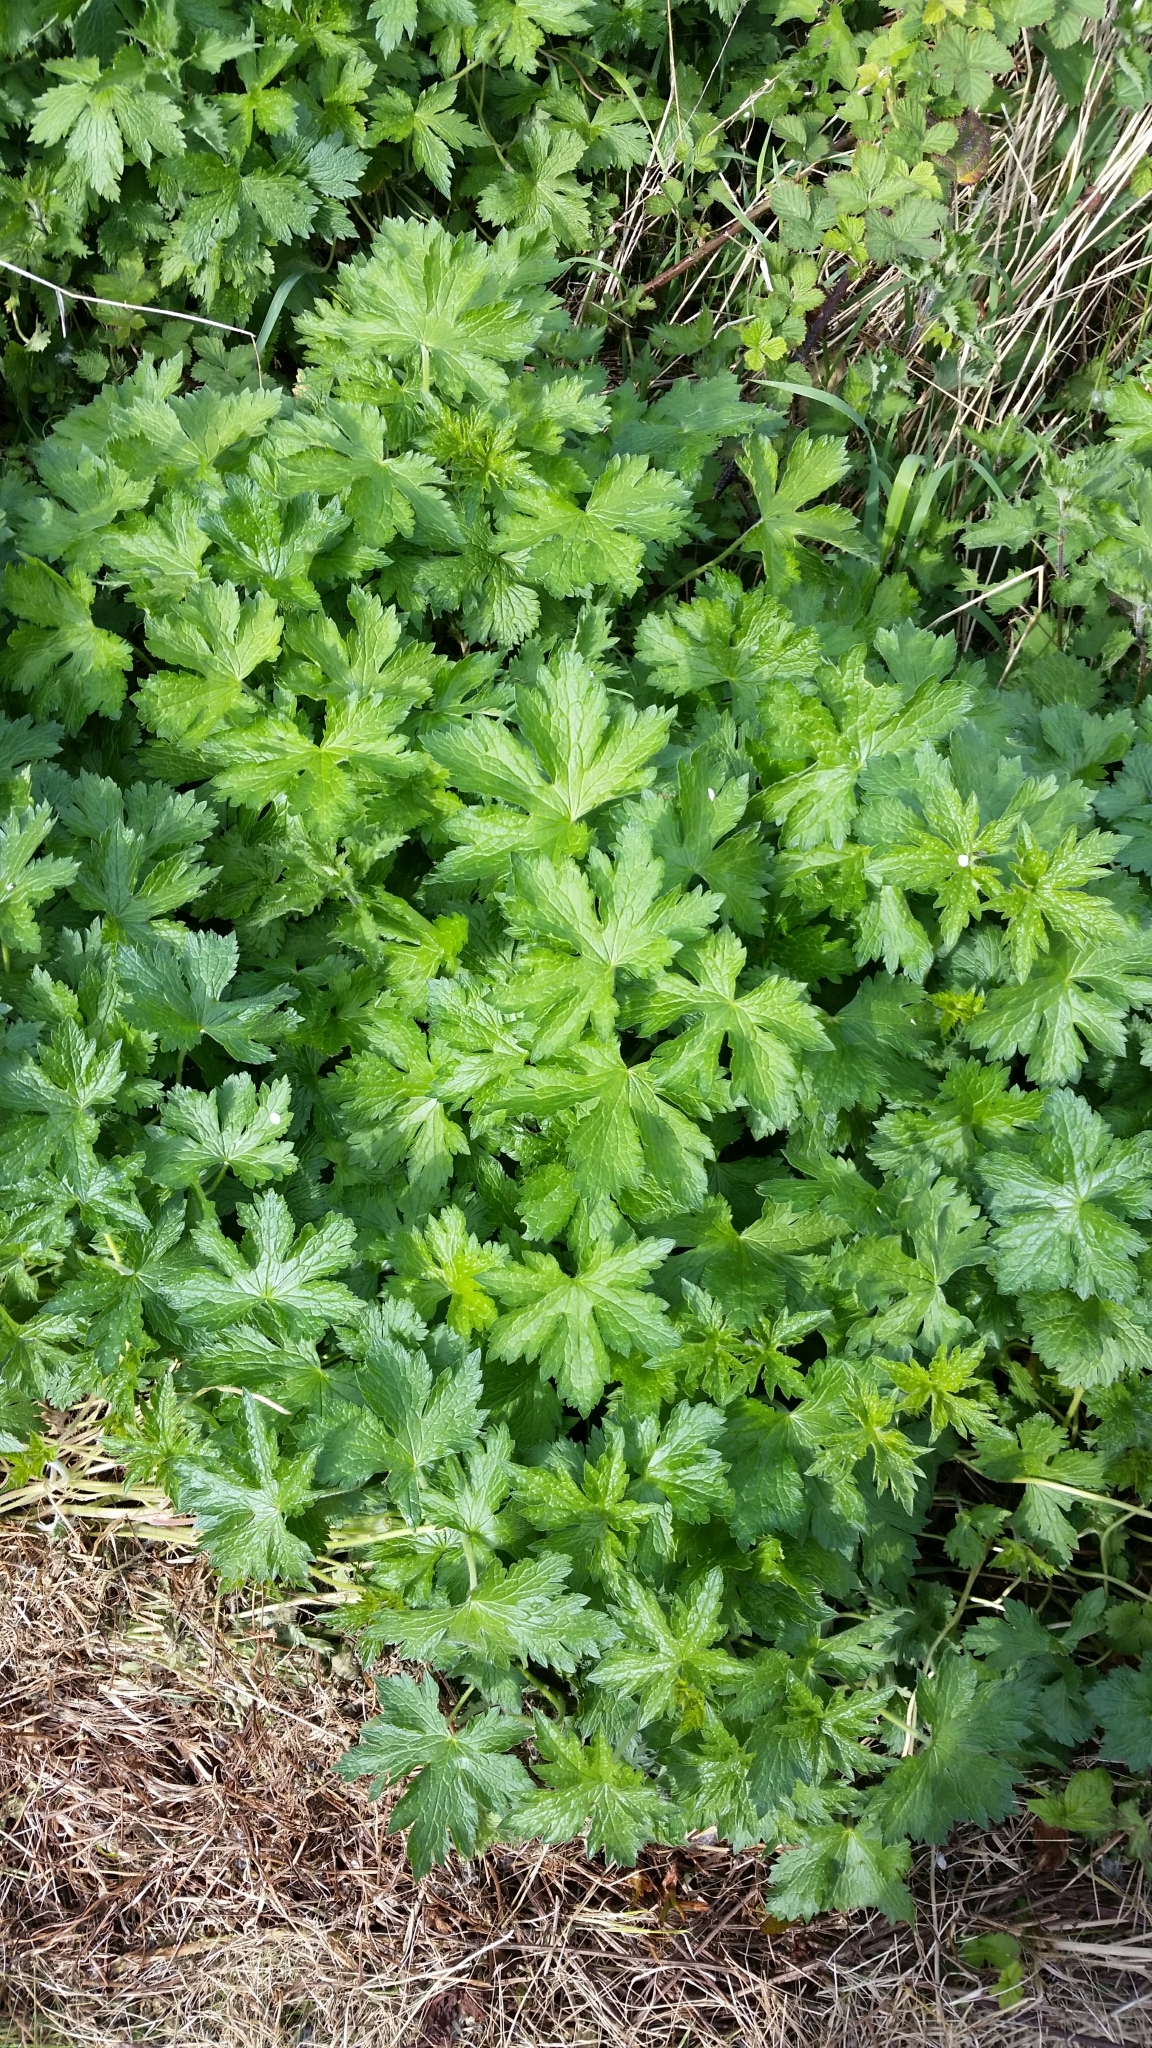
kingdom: Plantae
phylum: Tracheophyta
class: Magnoliopsida
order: Geraniales
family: Geraniaceae
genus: Geranium
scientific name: Geranium oxonianum
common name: Druce's crane's-bill
